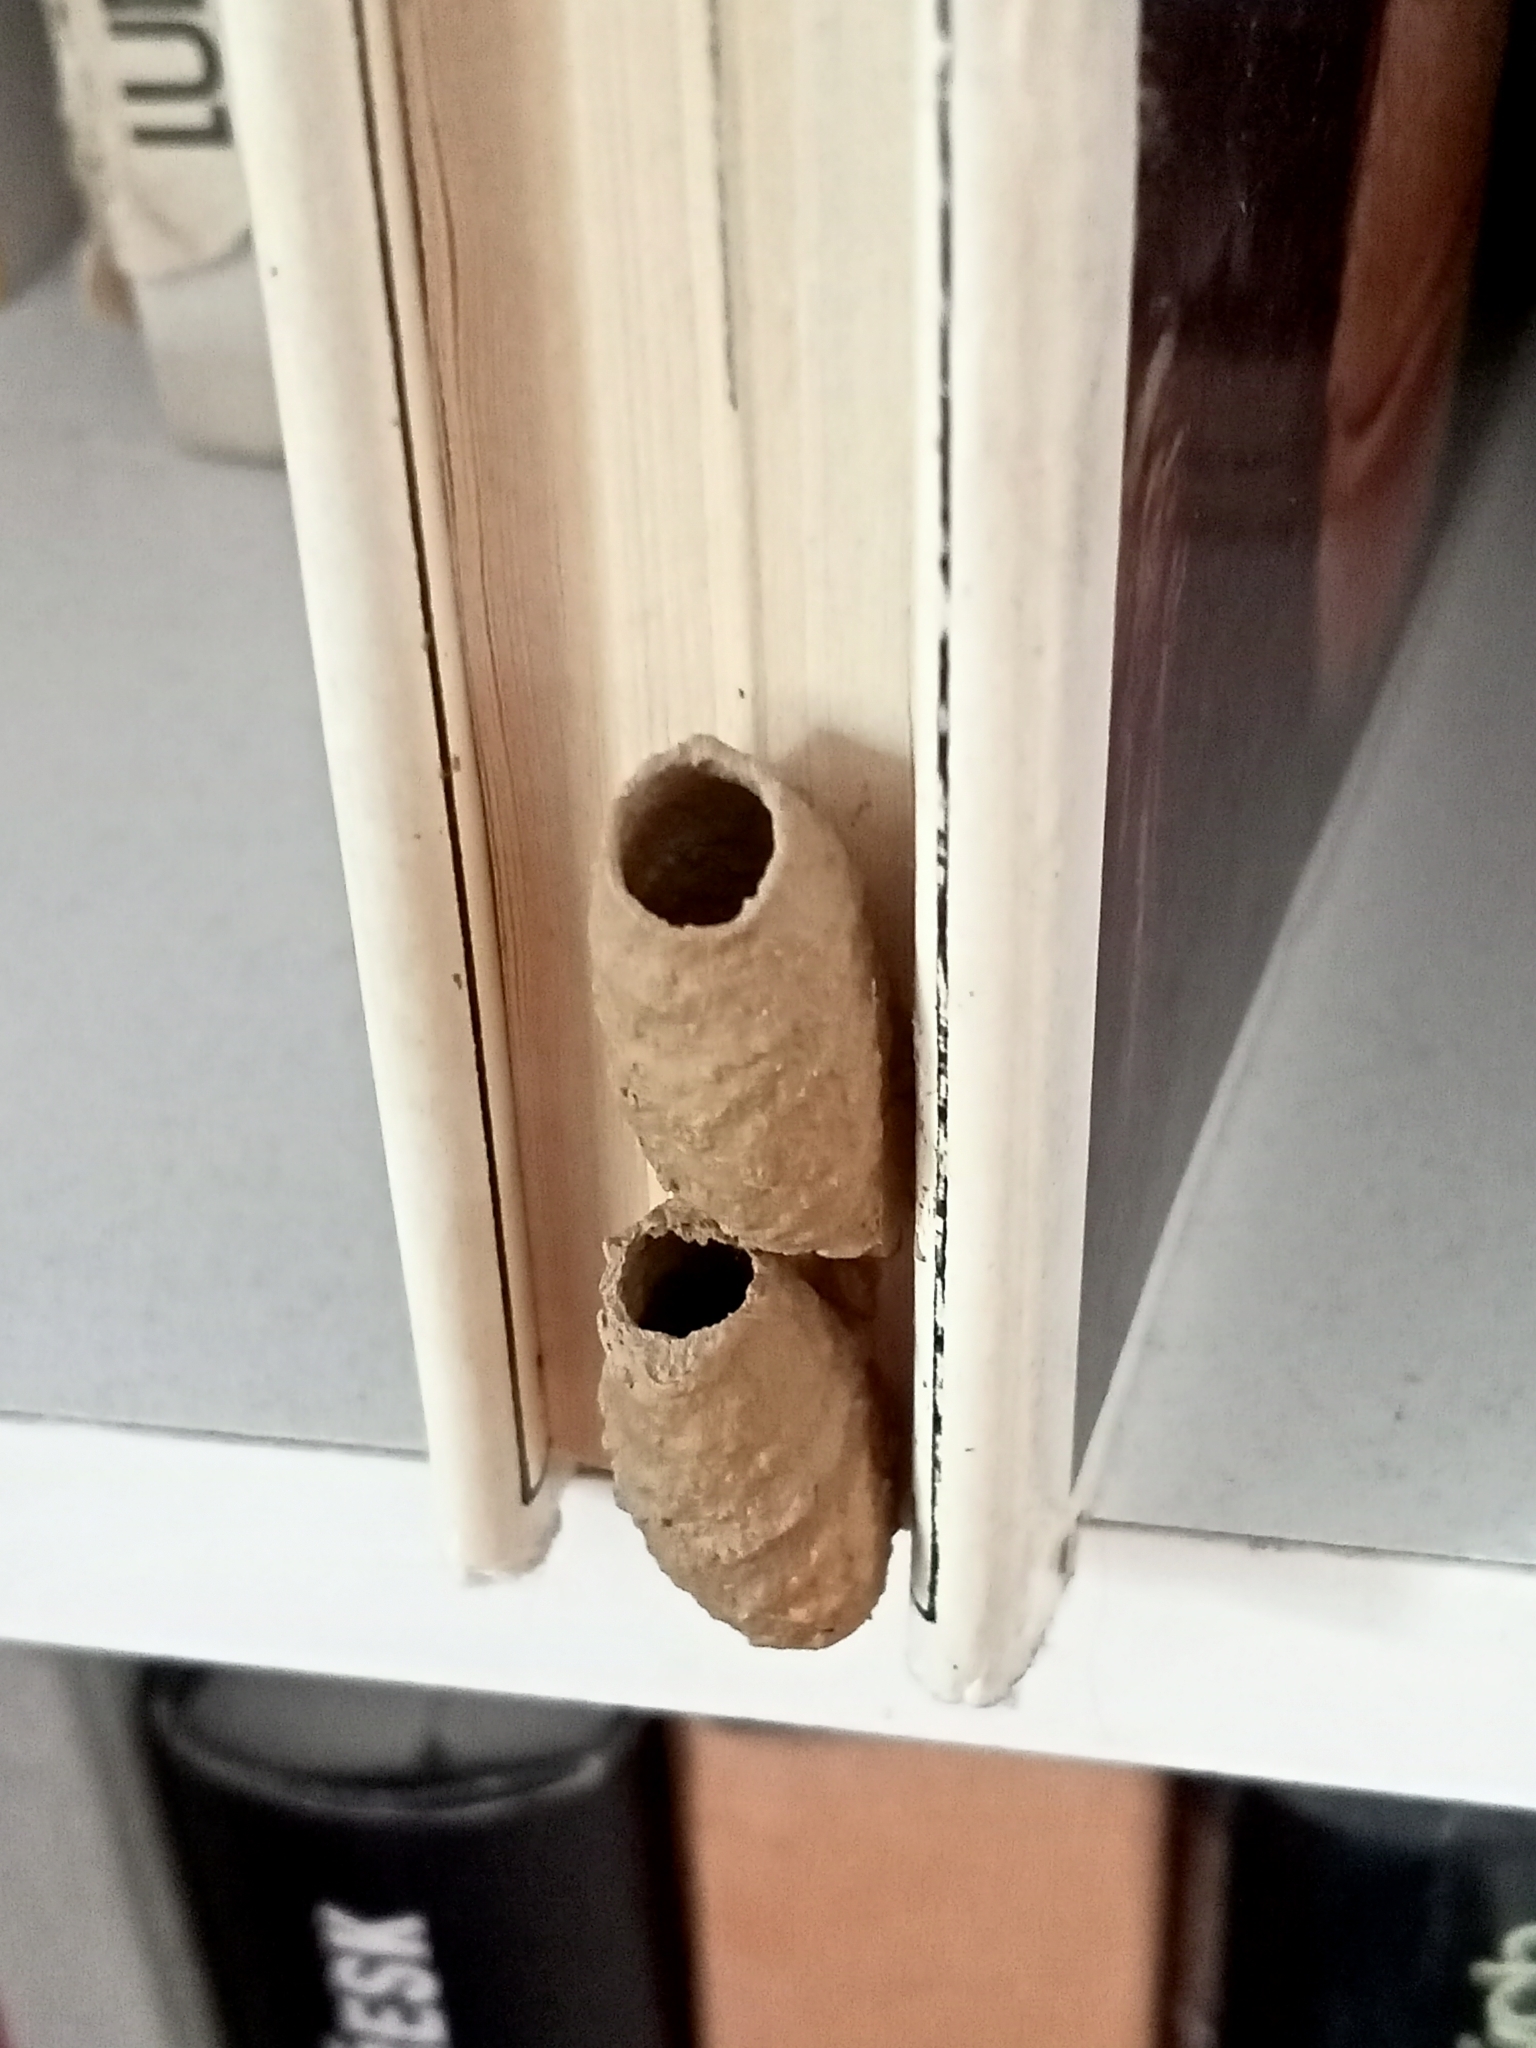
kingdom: Animalia
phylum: Arthropoda
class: Insecta
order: Hymenoptera
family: Sphecidae
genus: Sceliphron
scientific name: Sceliphron curvatum
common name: Pèlopèe
